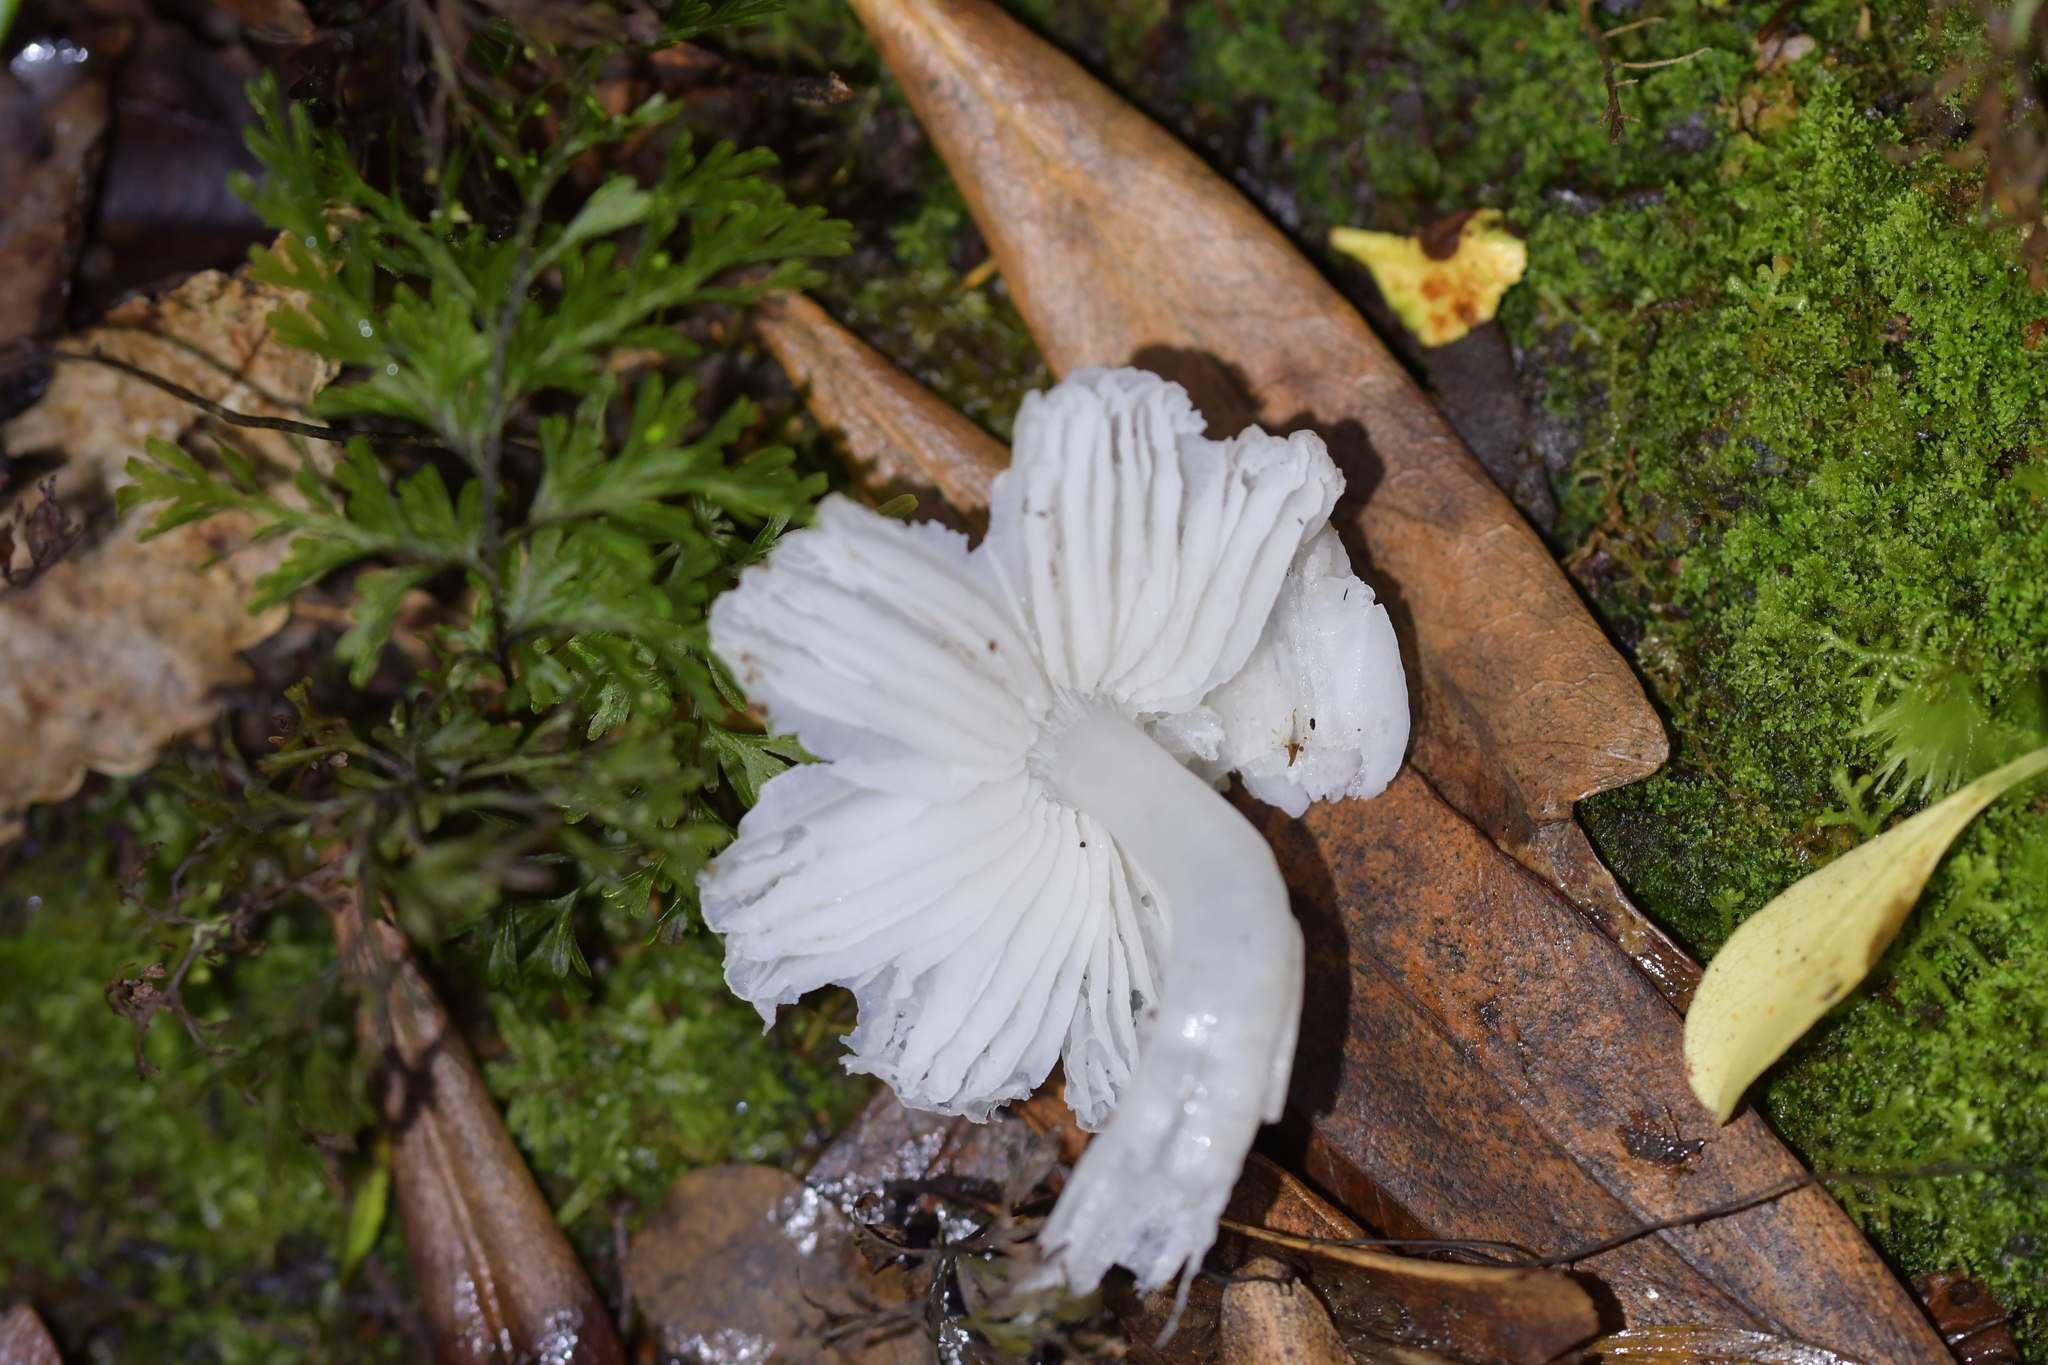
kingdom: Fungi
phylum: Basidiomycota
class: Agaricomycetes
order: Agaricales
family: Hygrophoraceae
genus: Humidicutis
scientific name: Humidicutis mavis
